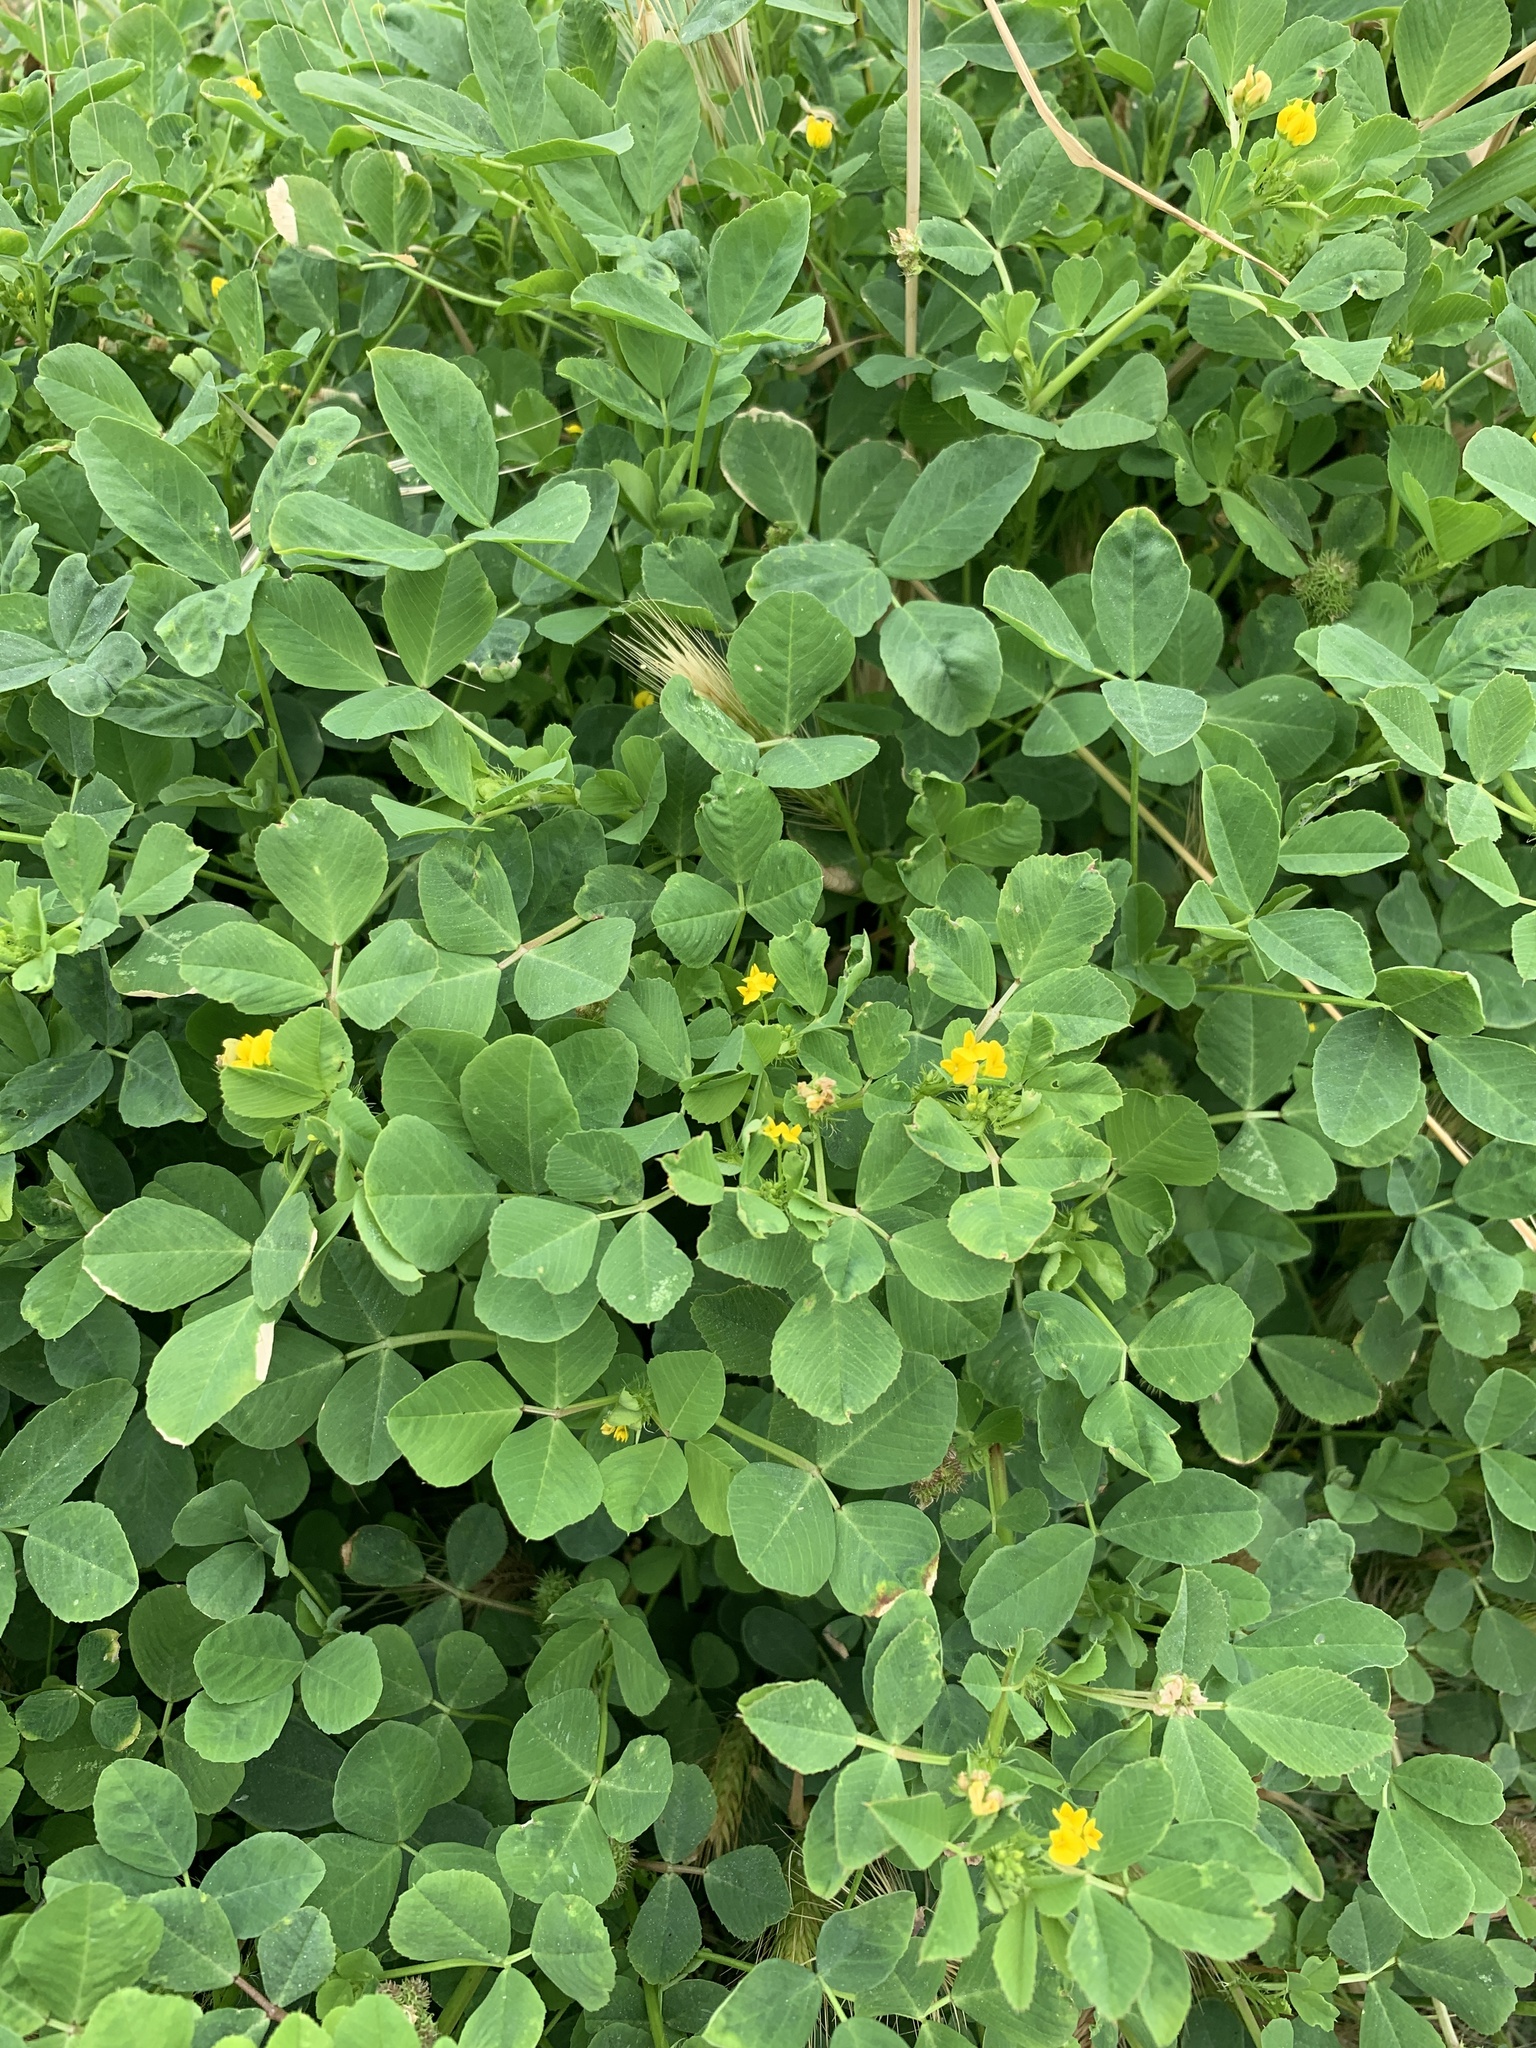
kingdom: Plantae
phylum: Tracheophyta
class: Magnoliopsida
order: Fabales
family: Fabaceae
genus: Medicago
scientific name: Medicago polymorpha
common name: Burclover
